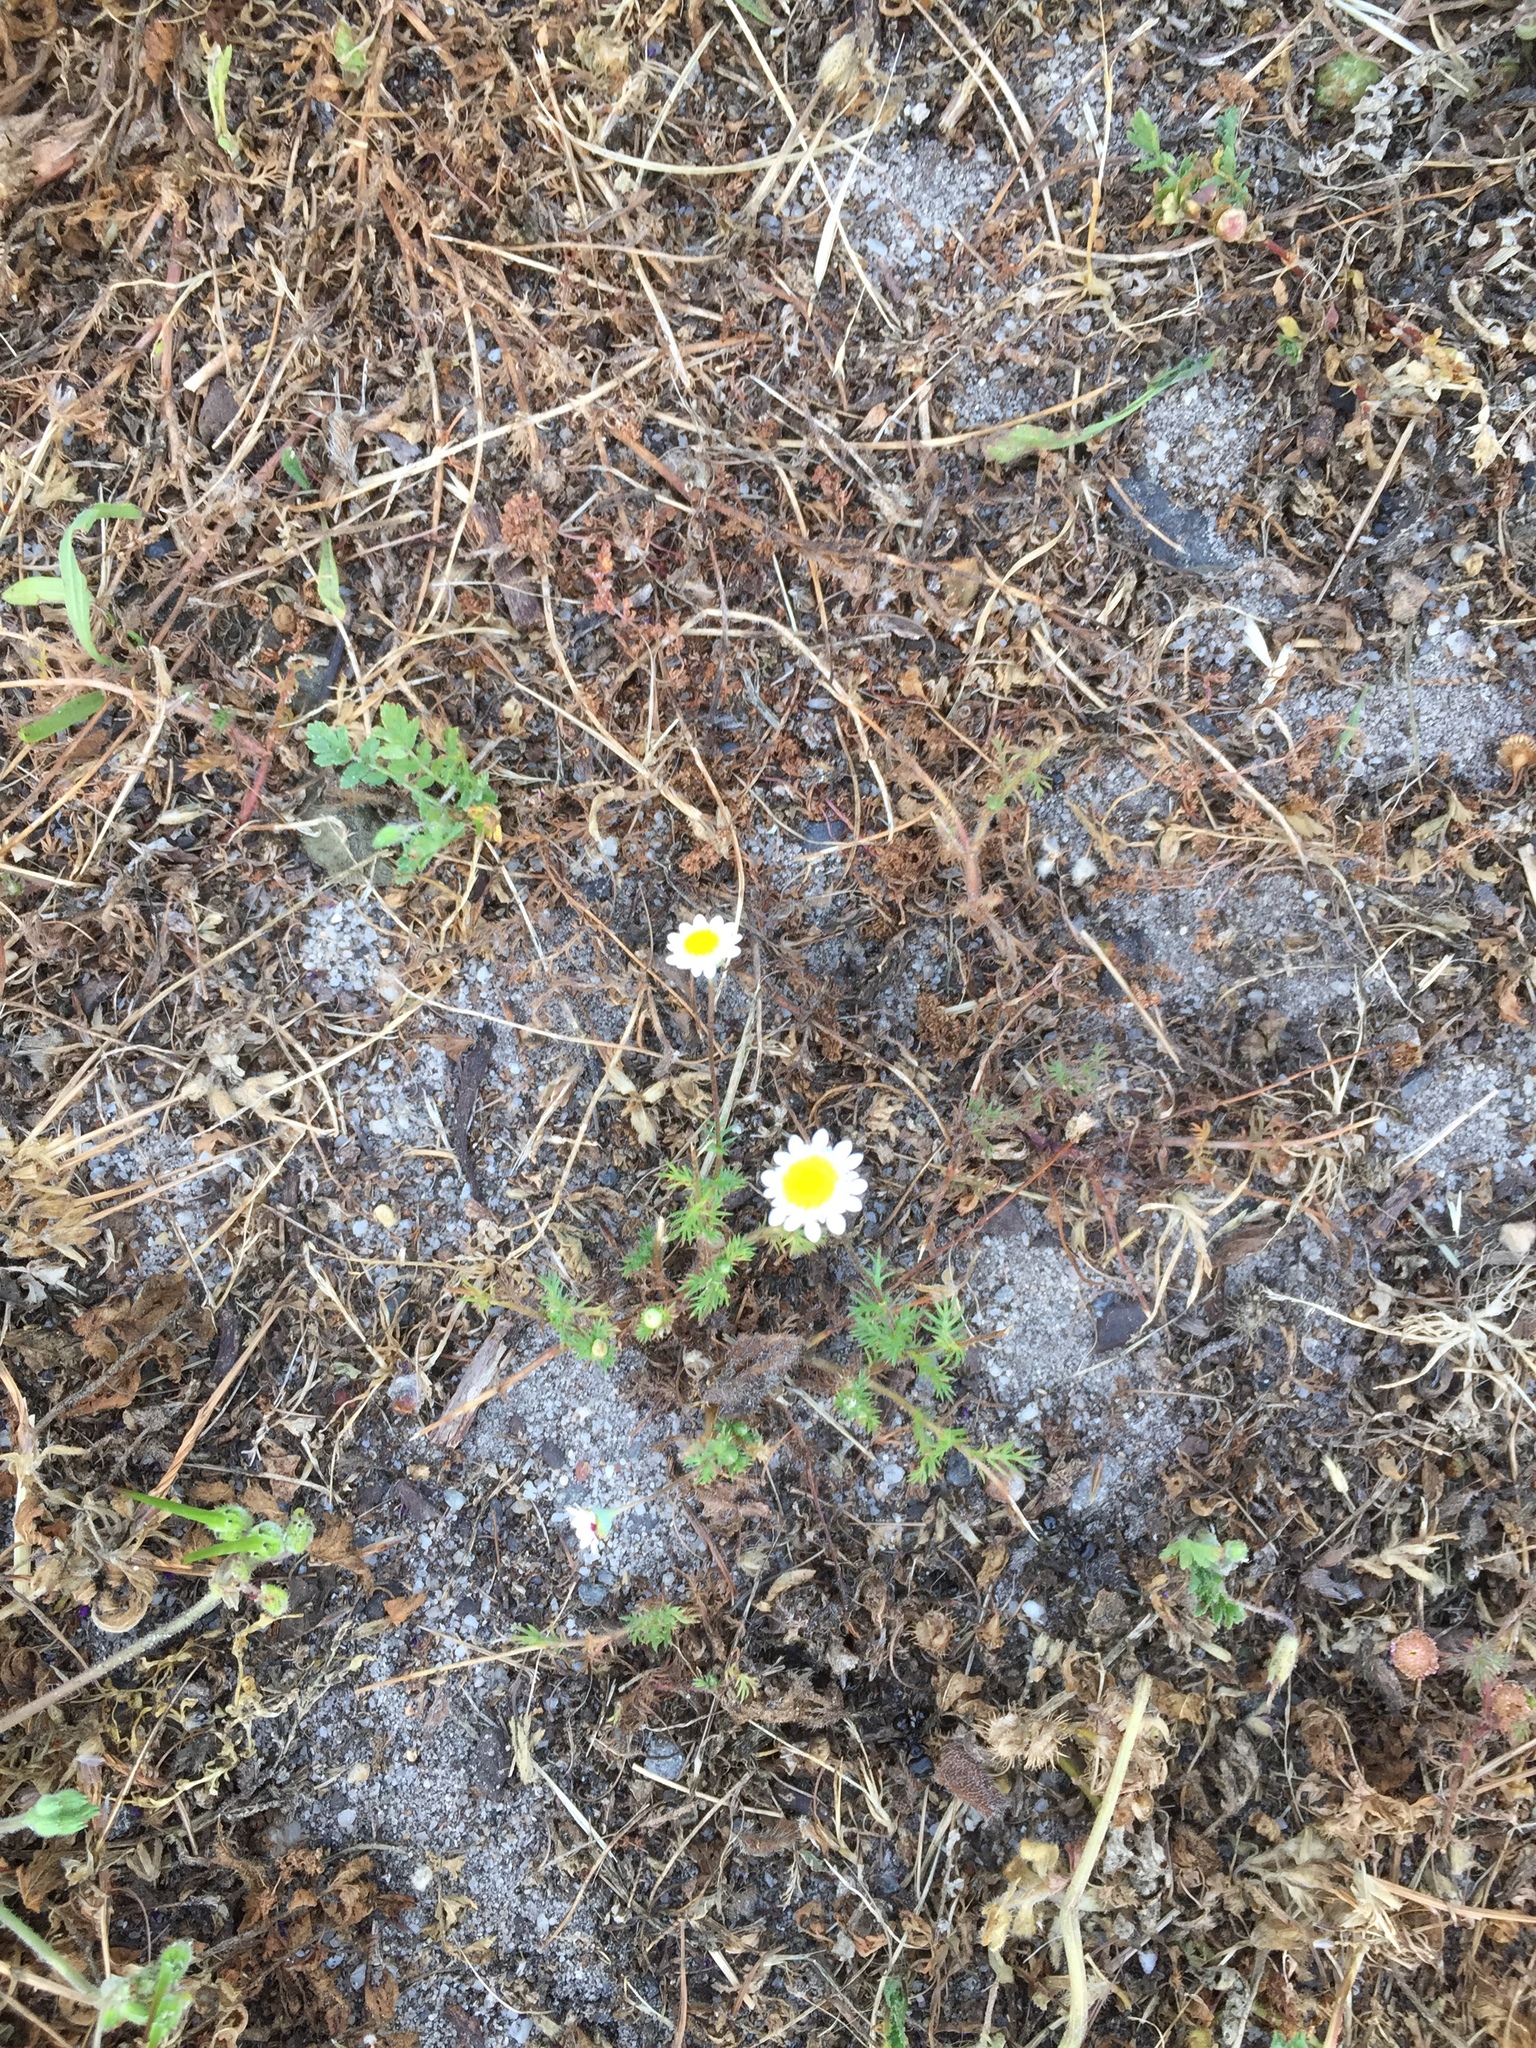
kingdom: Plantae
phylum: Tracheophyta
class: Magnoliopsida
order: Asterales
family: Asteraceae
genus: Cotula
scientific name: Cotula turbinata
